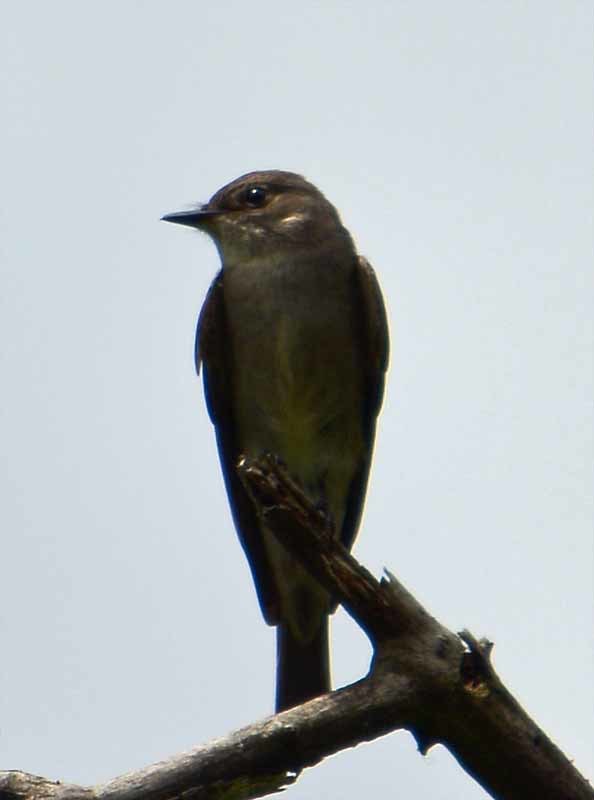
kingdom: Animalia
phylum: Chordata
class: Aves
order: Passeriformes
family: Tyrannidae
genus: Contopus
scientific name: Contopus sordidulus
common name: Western wood-pewee
